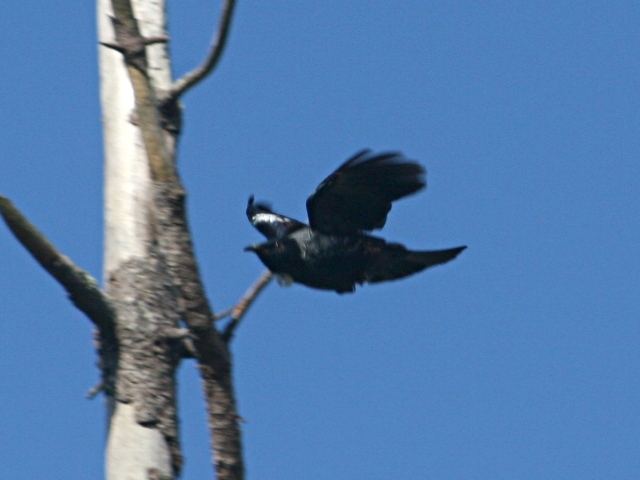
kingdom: Animalia
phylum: Chordata
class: Aves
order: Passeriformes
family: Meliphagidae
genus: Prosthemadera
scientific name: Prosthemadera novaeseelandiae
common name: Tui
